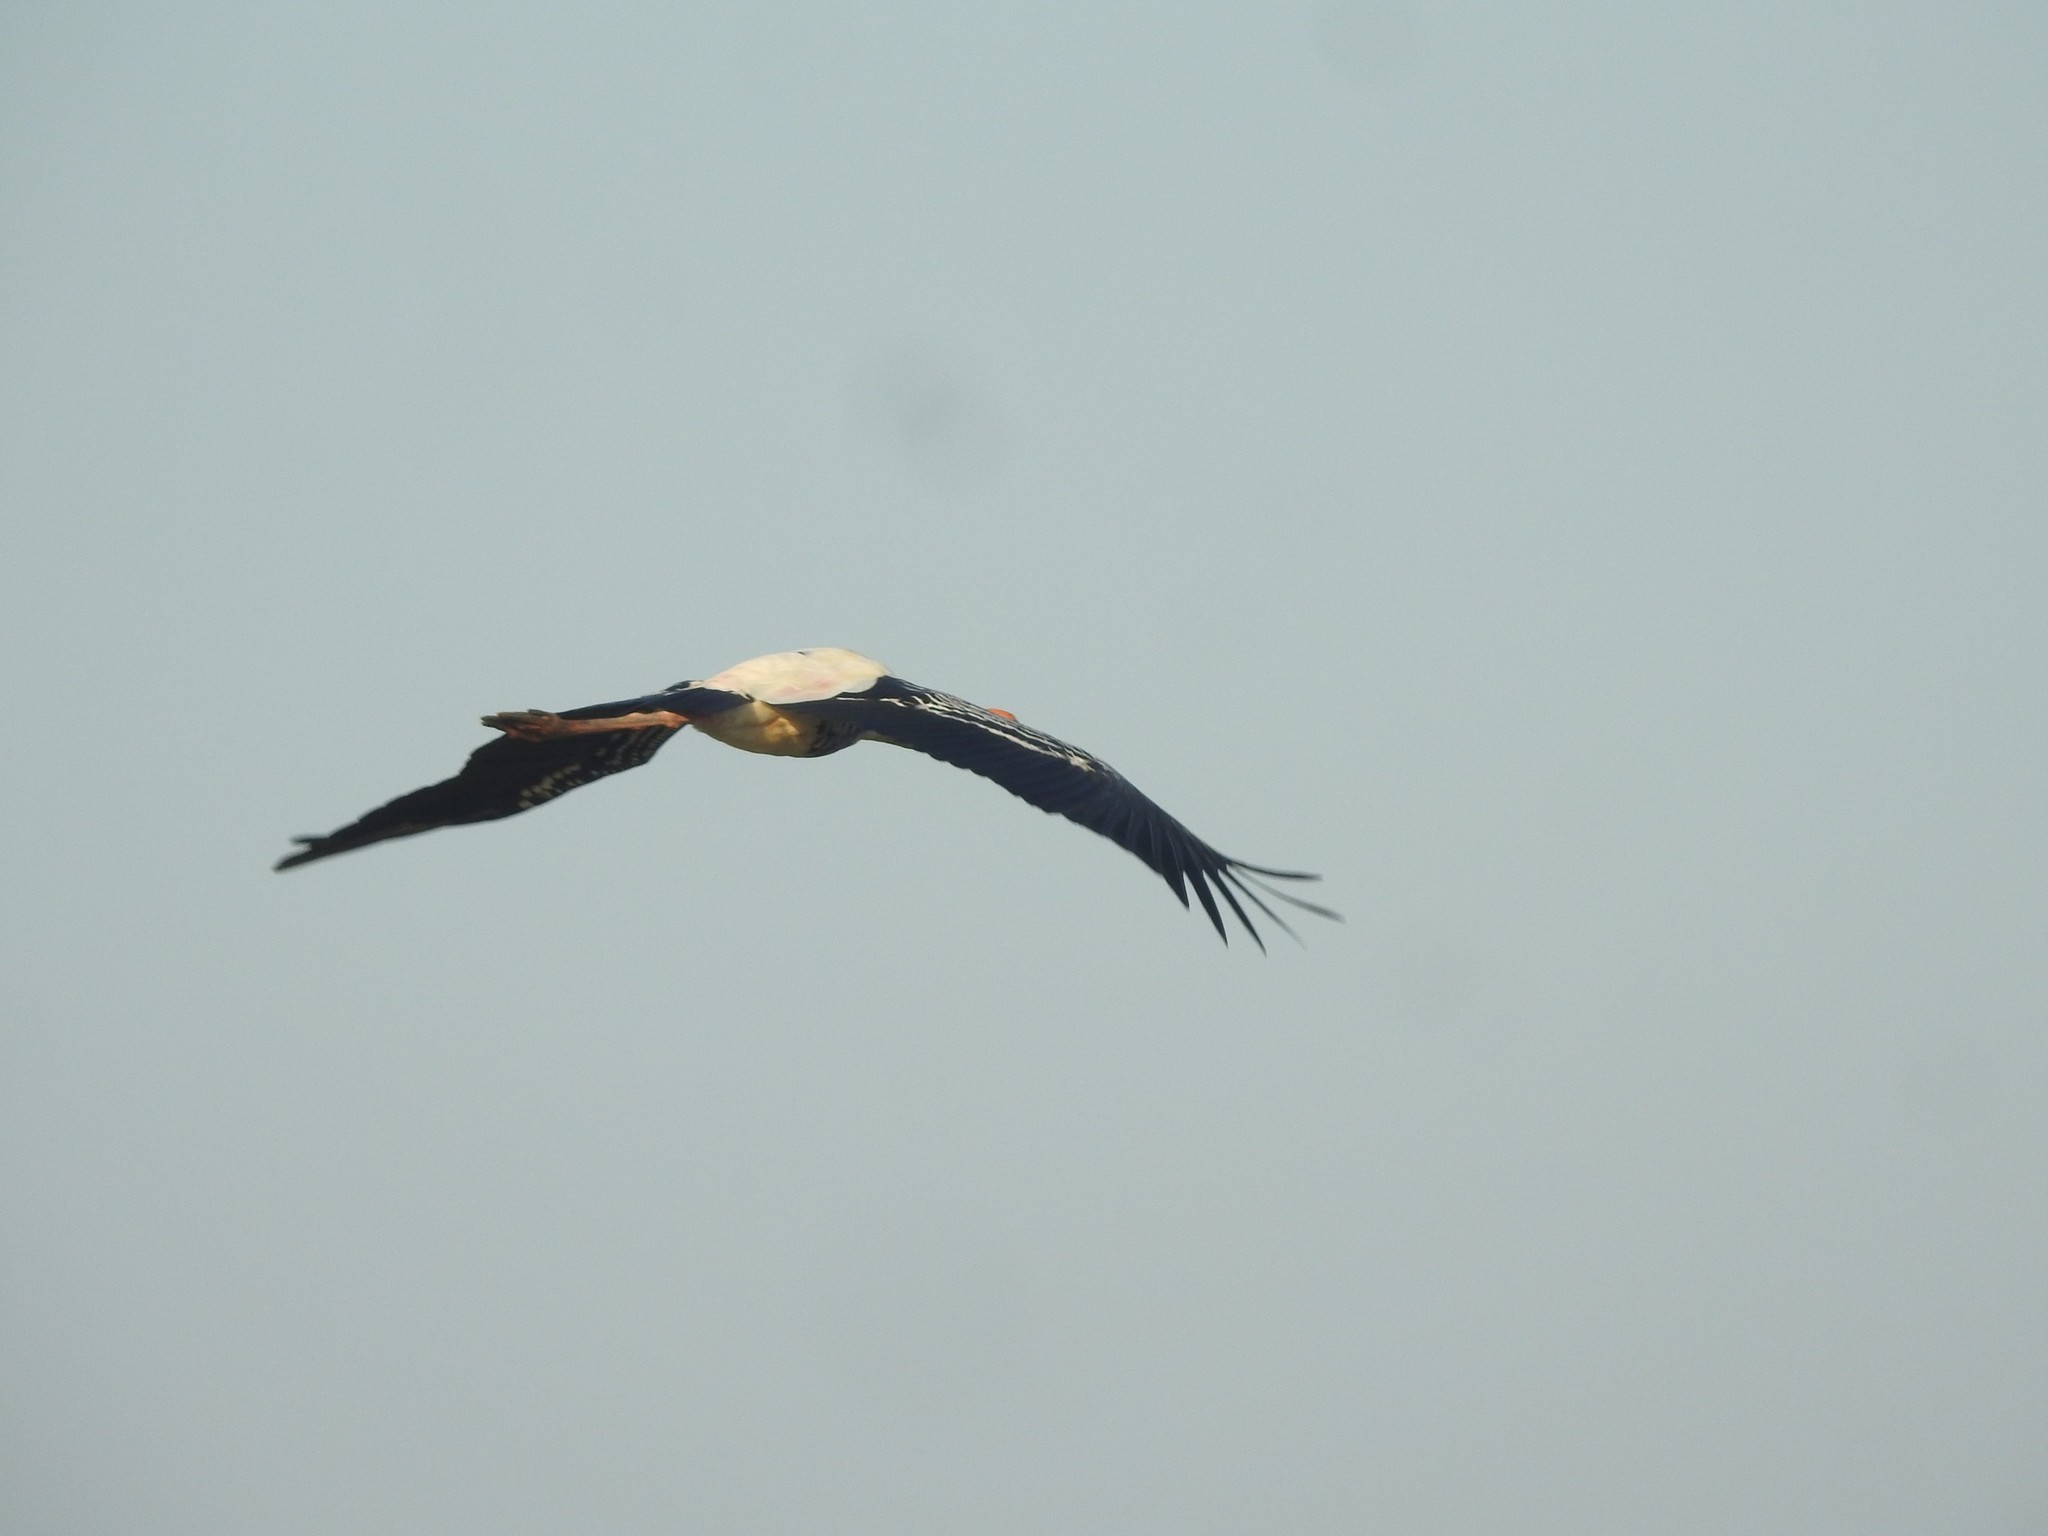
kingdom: Animalia
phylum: Chordata
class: Aves
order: Ciconiiformes
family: Ciconiidae
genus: Mycteria
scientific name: Mycteria leucocephala
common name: Painted stork
